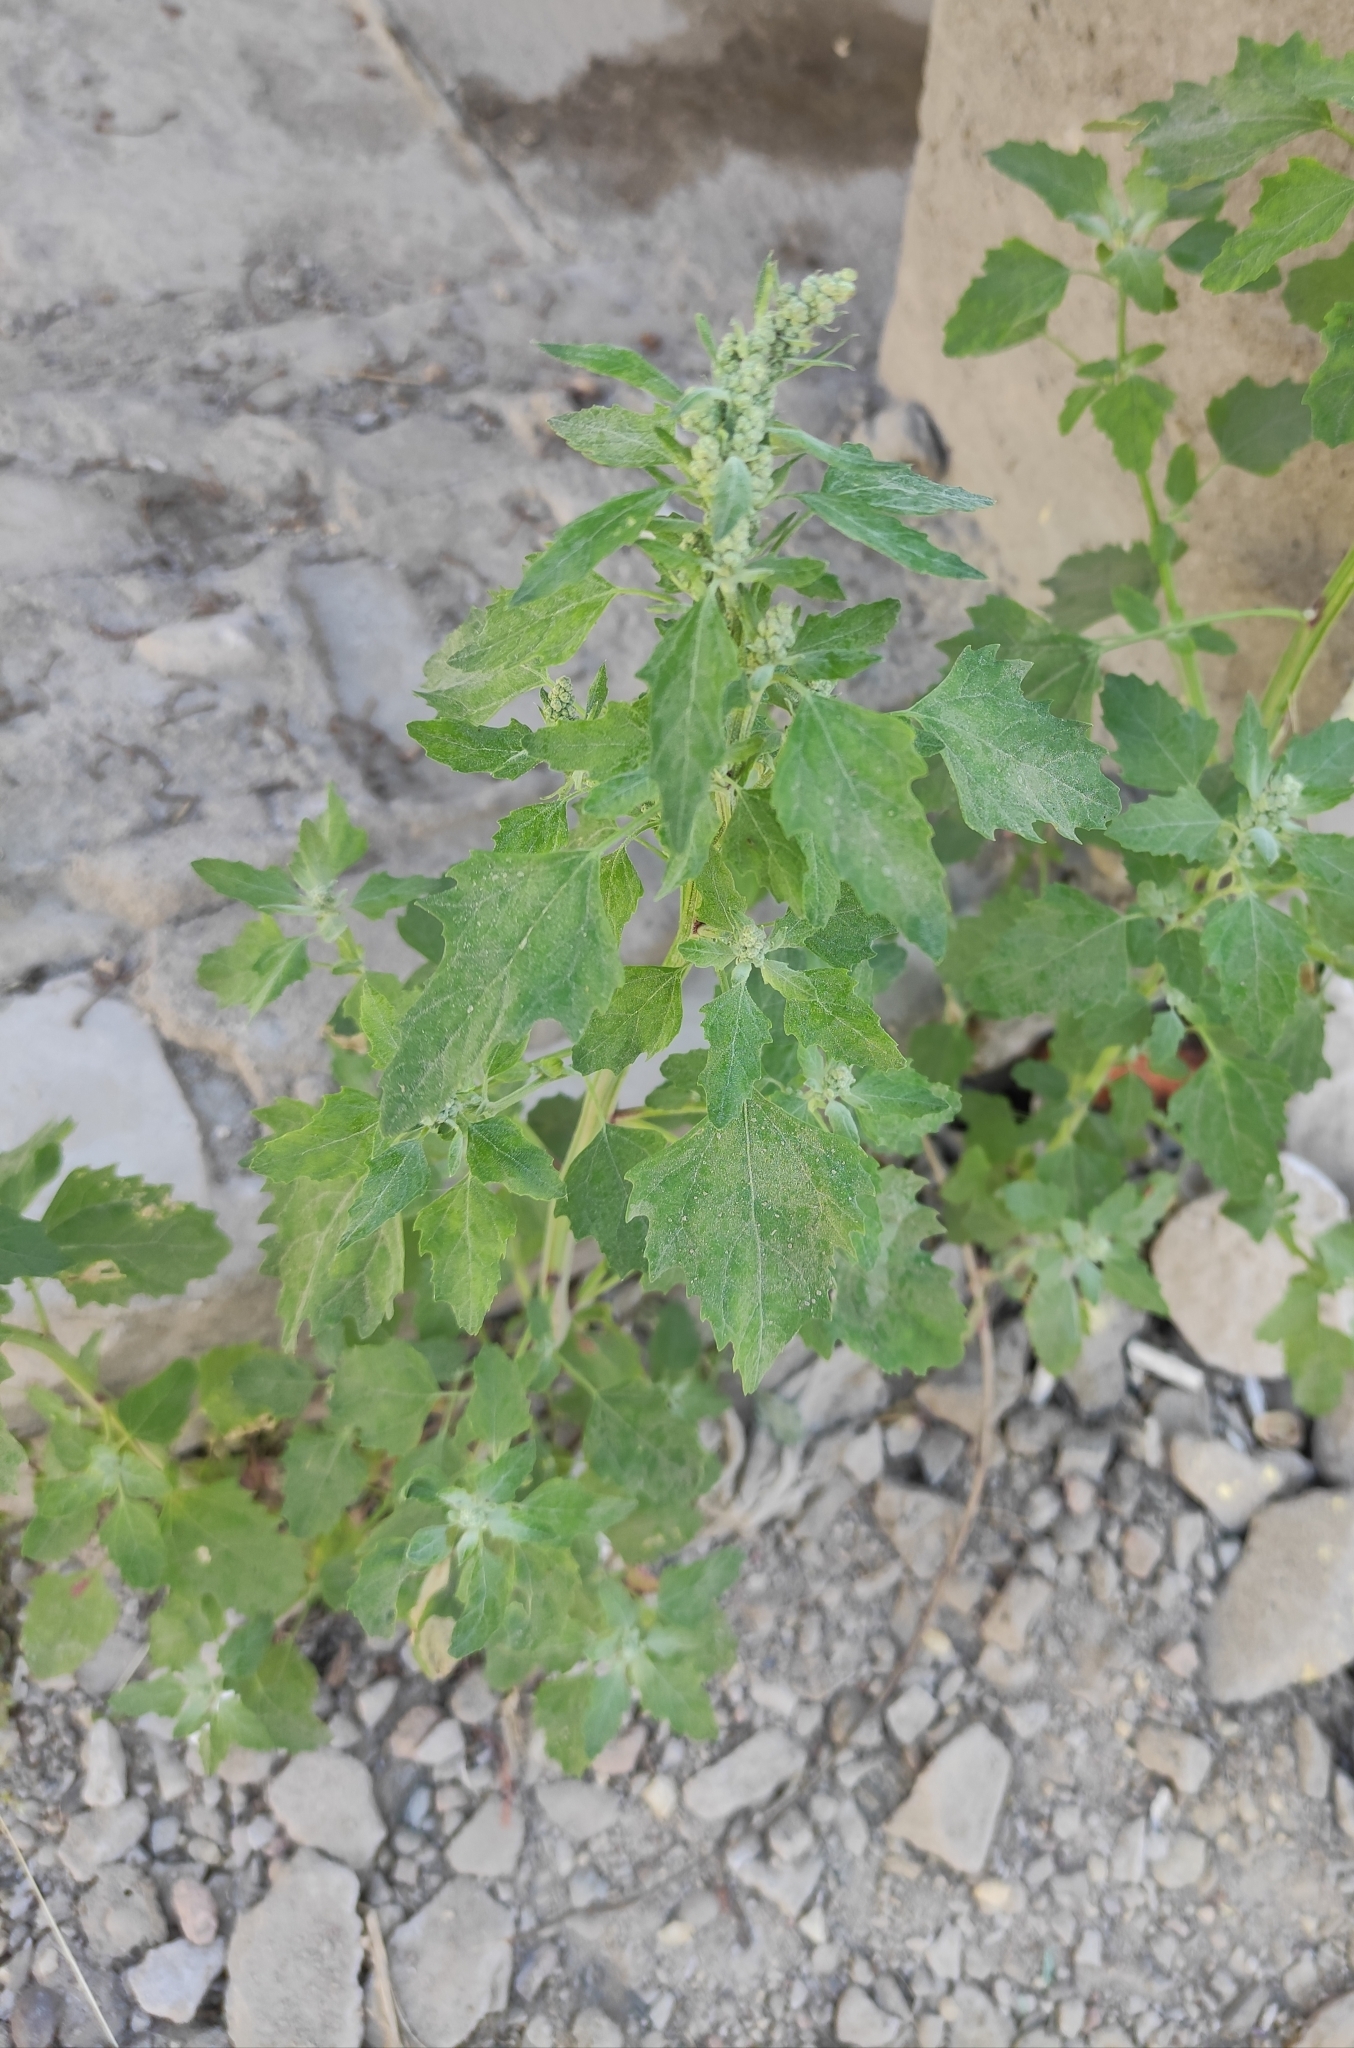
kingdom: Plantae
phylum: Tracheophyta
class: Magnoliopsida
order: Caryophyllales
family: Amaranthaceae
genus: Chenopodium
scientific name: Chenopodium album
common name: Fat-hen
